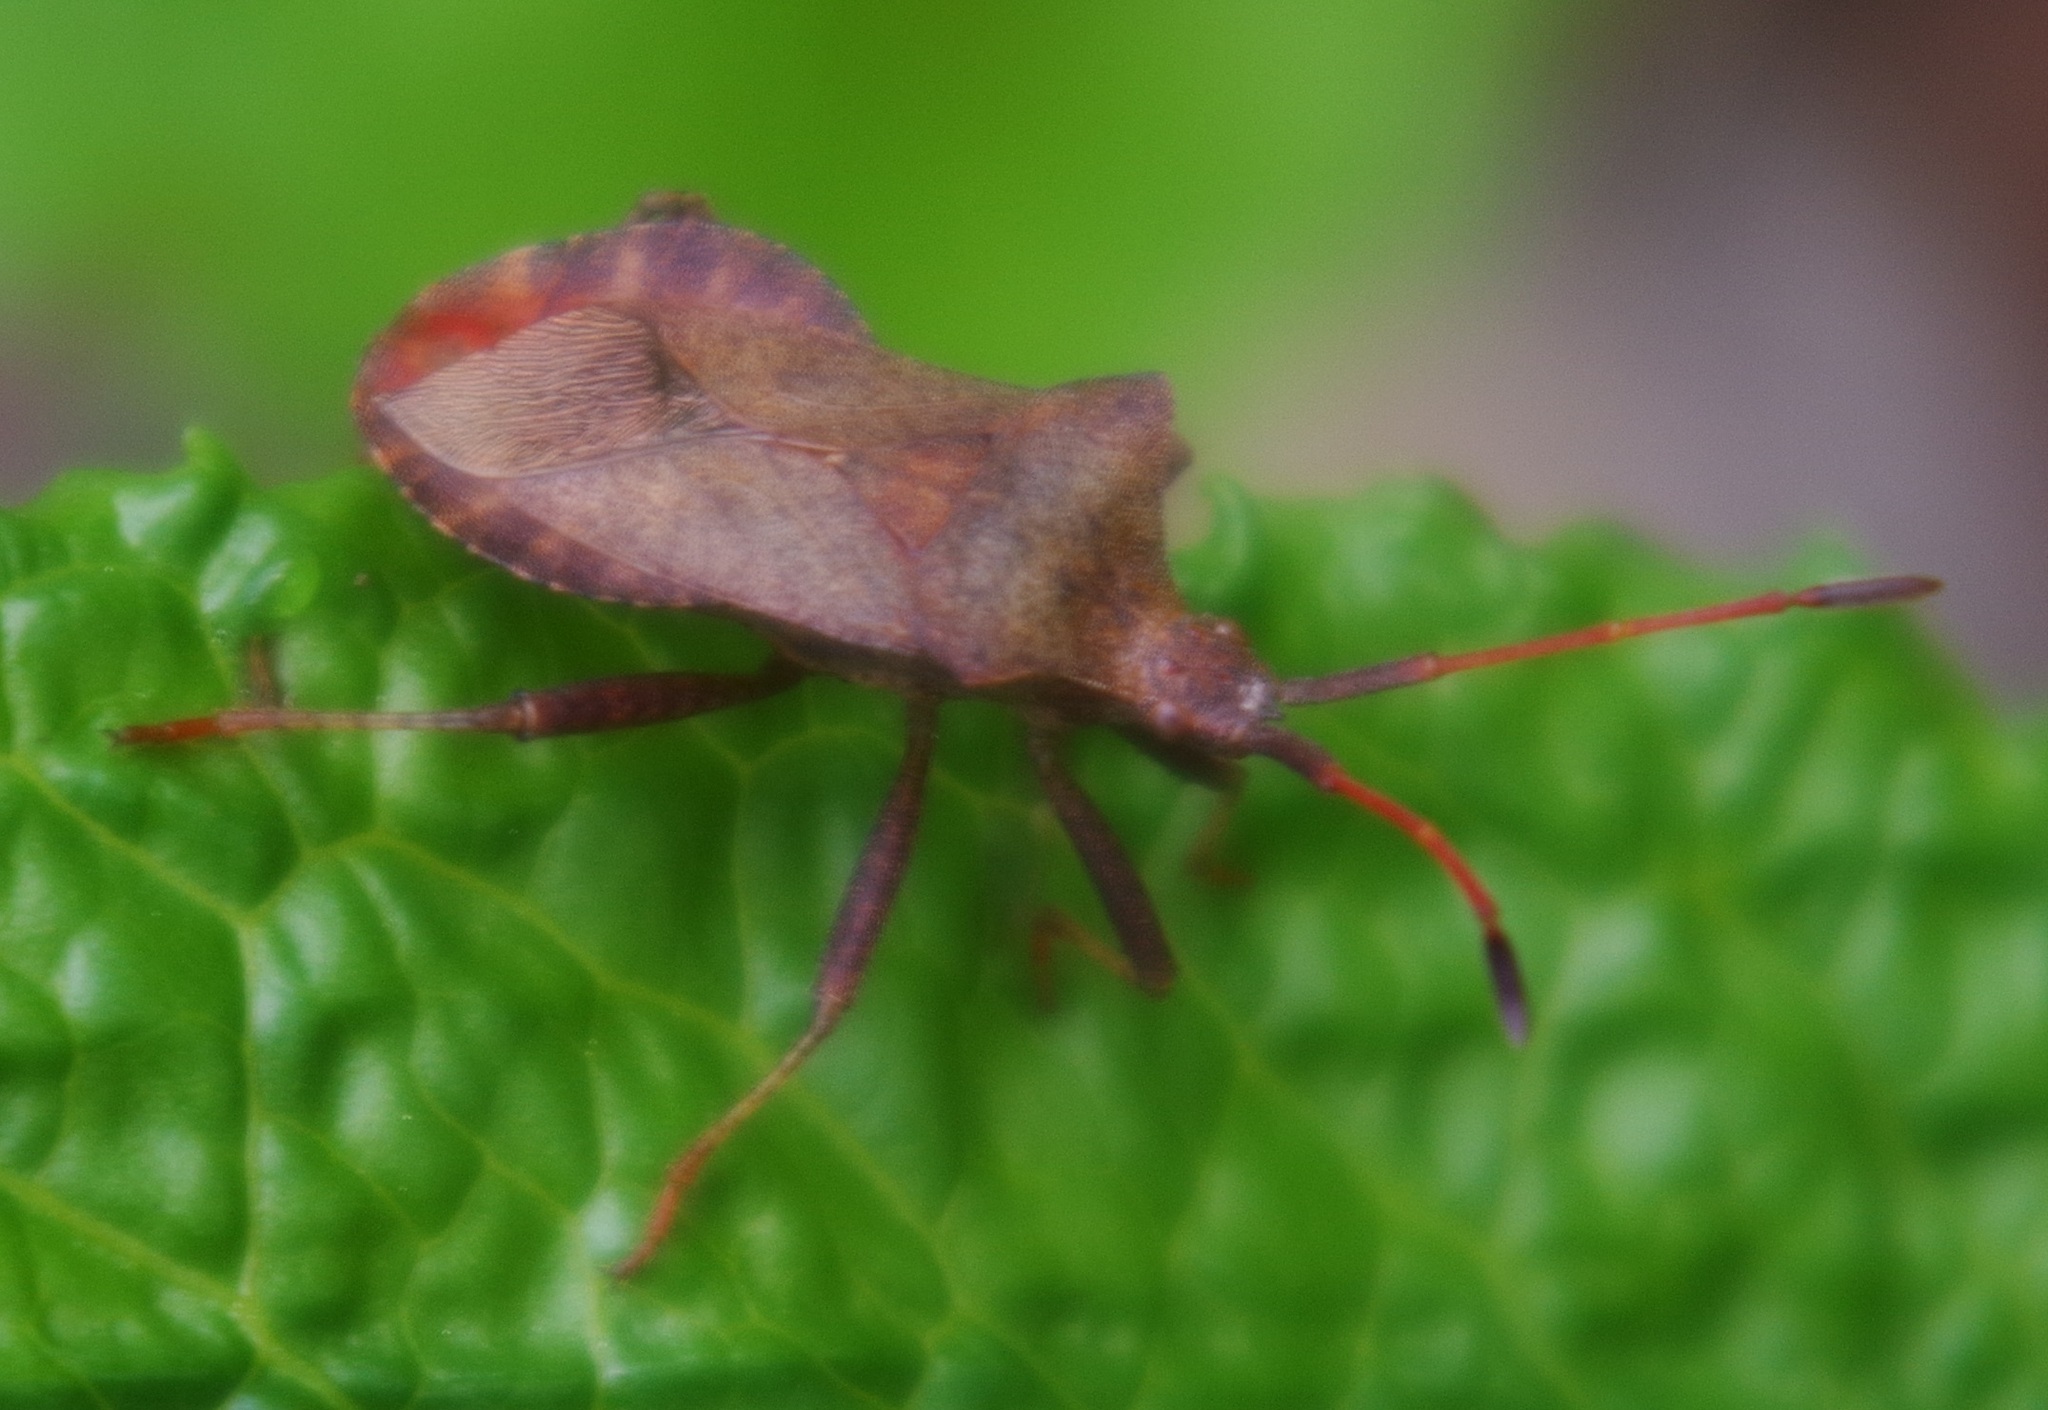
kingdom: Animalia
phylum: Arthropoda
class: Insecta
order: Hemiptera
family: Coreidae
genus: Coreus
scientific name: Coreus marginatus
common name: Dock bug
